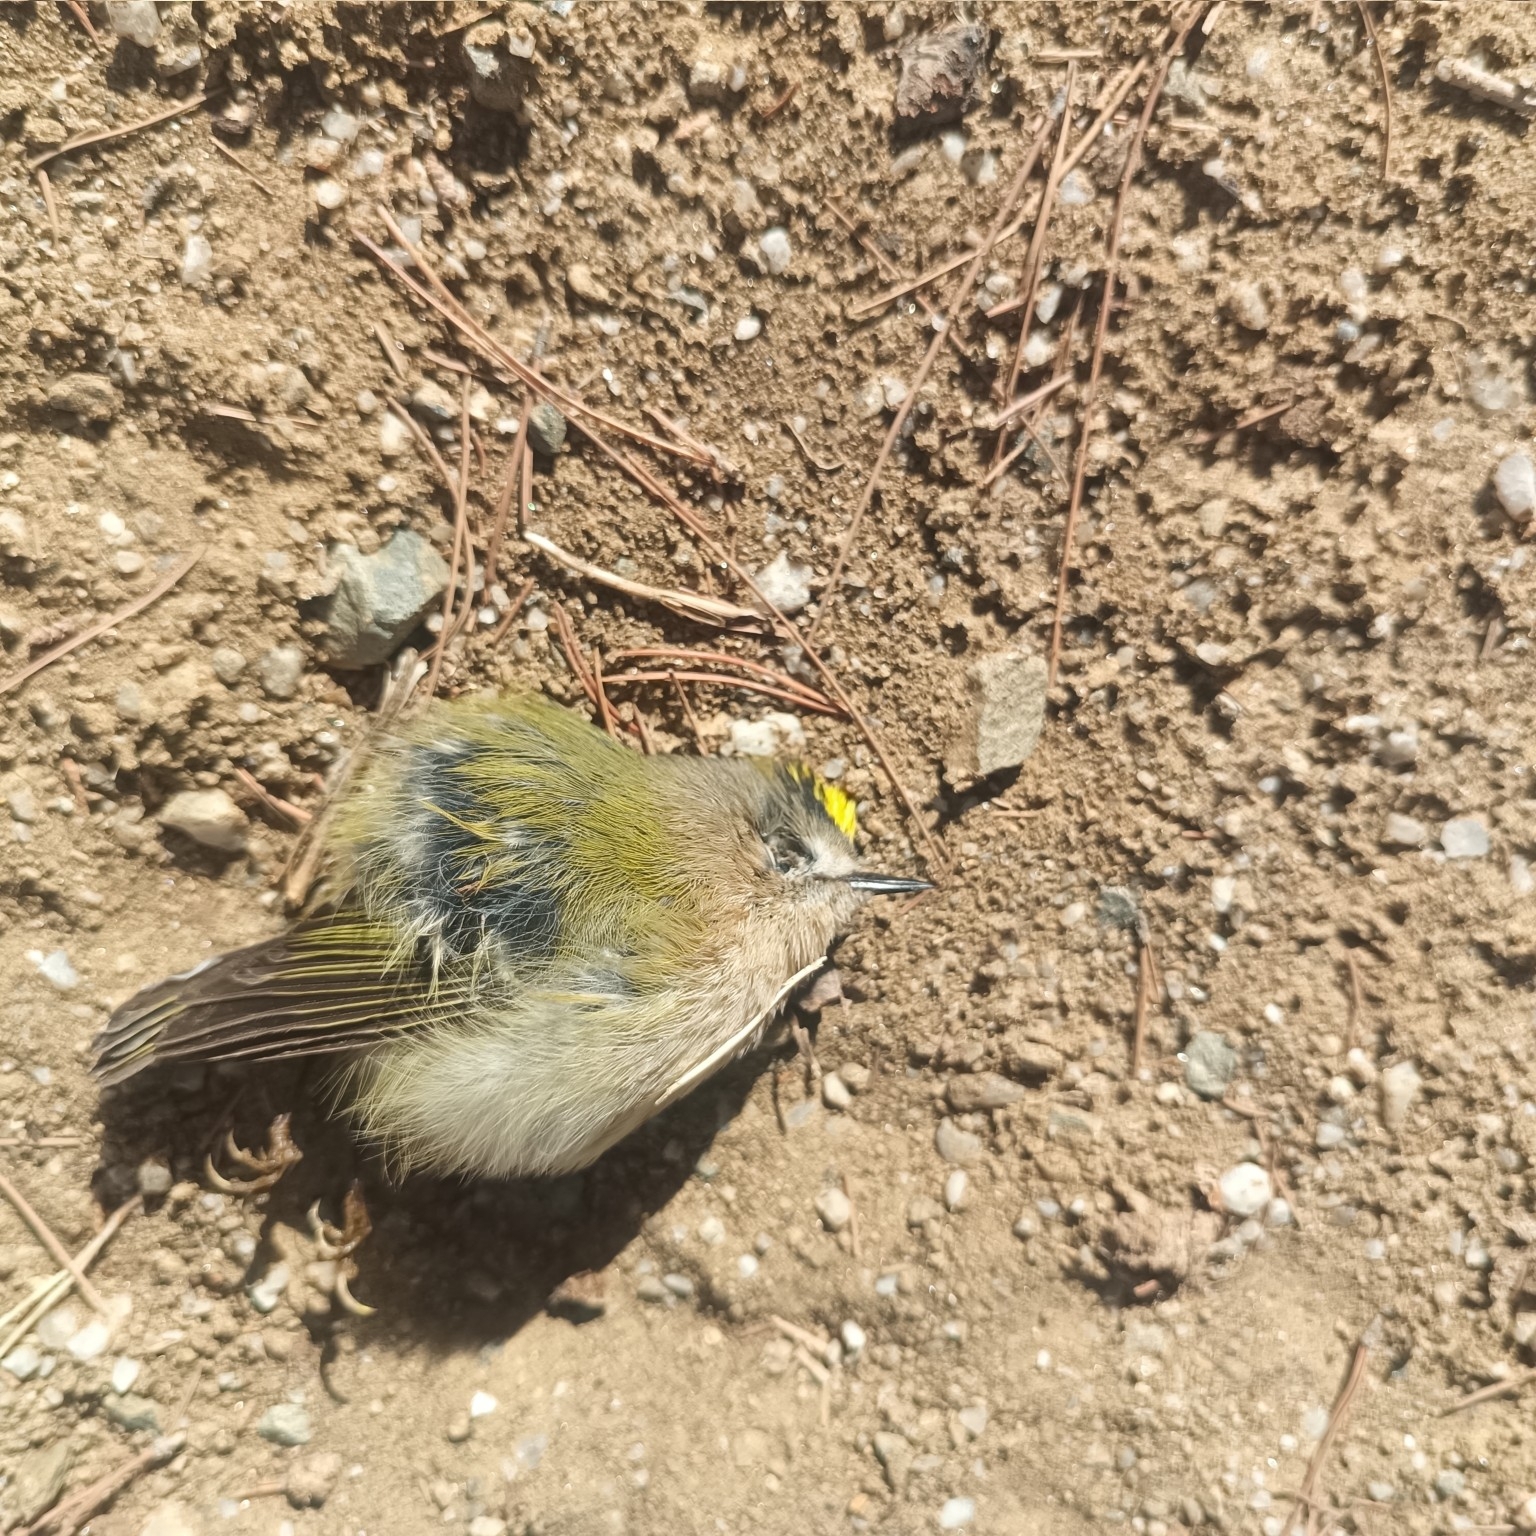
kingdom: Animalia
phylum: Chordata
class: Aves
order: Passeriformes
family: Regulidae
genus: Regulus
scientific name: Regulus regulus
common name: Goldcrest
